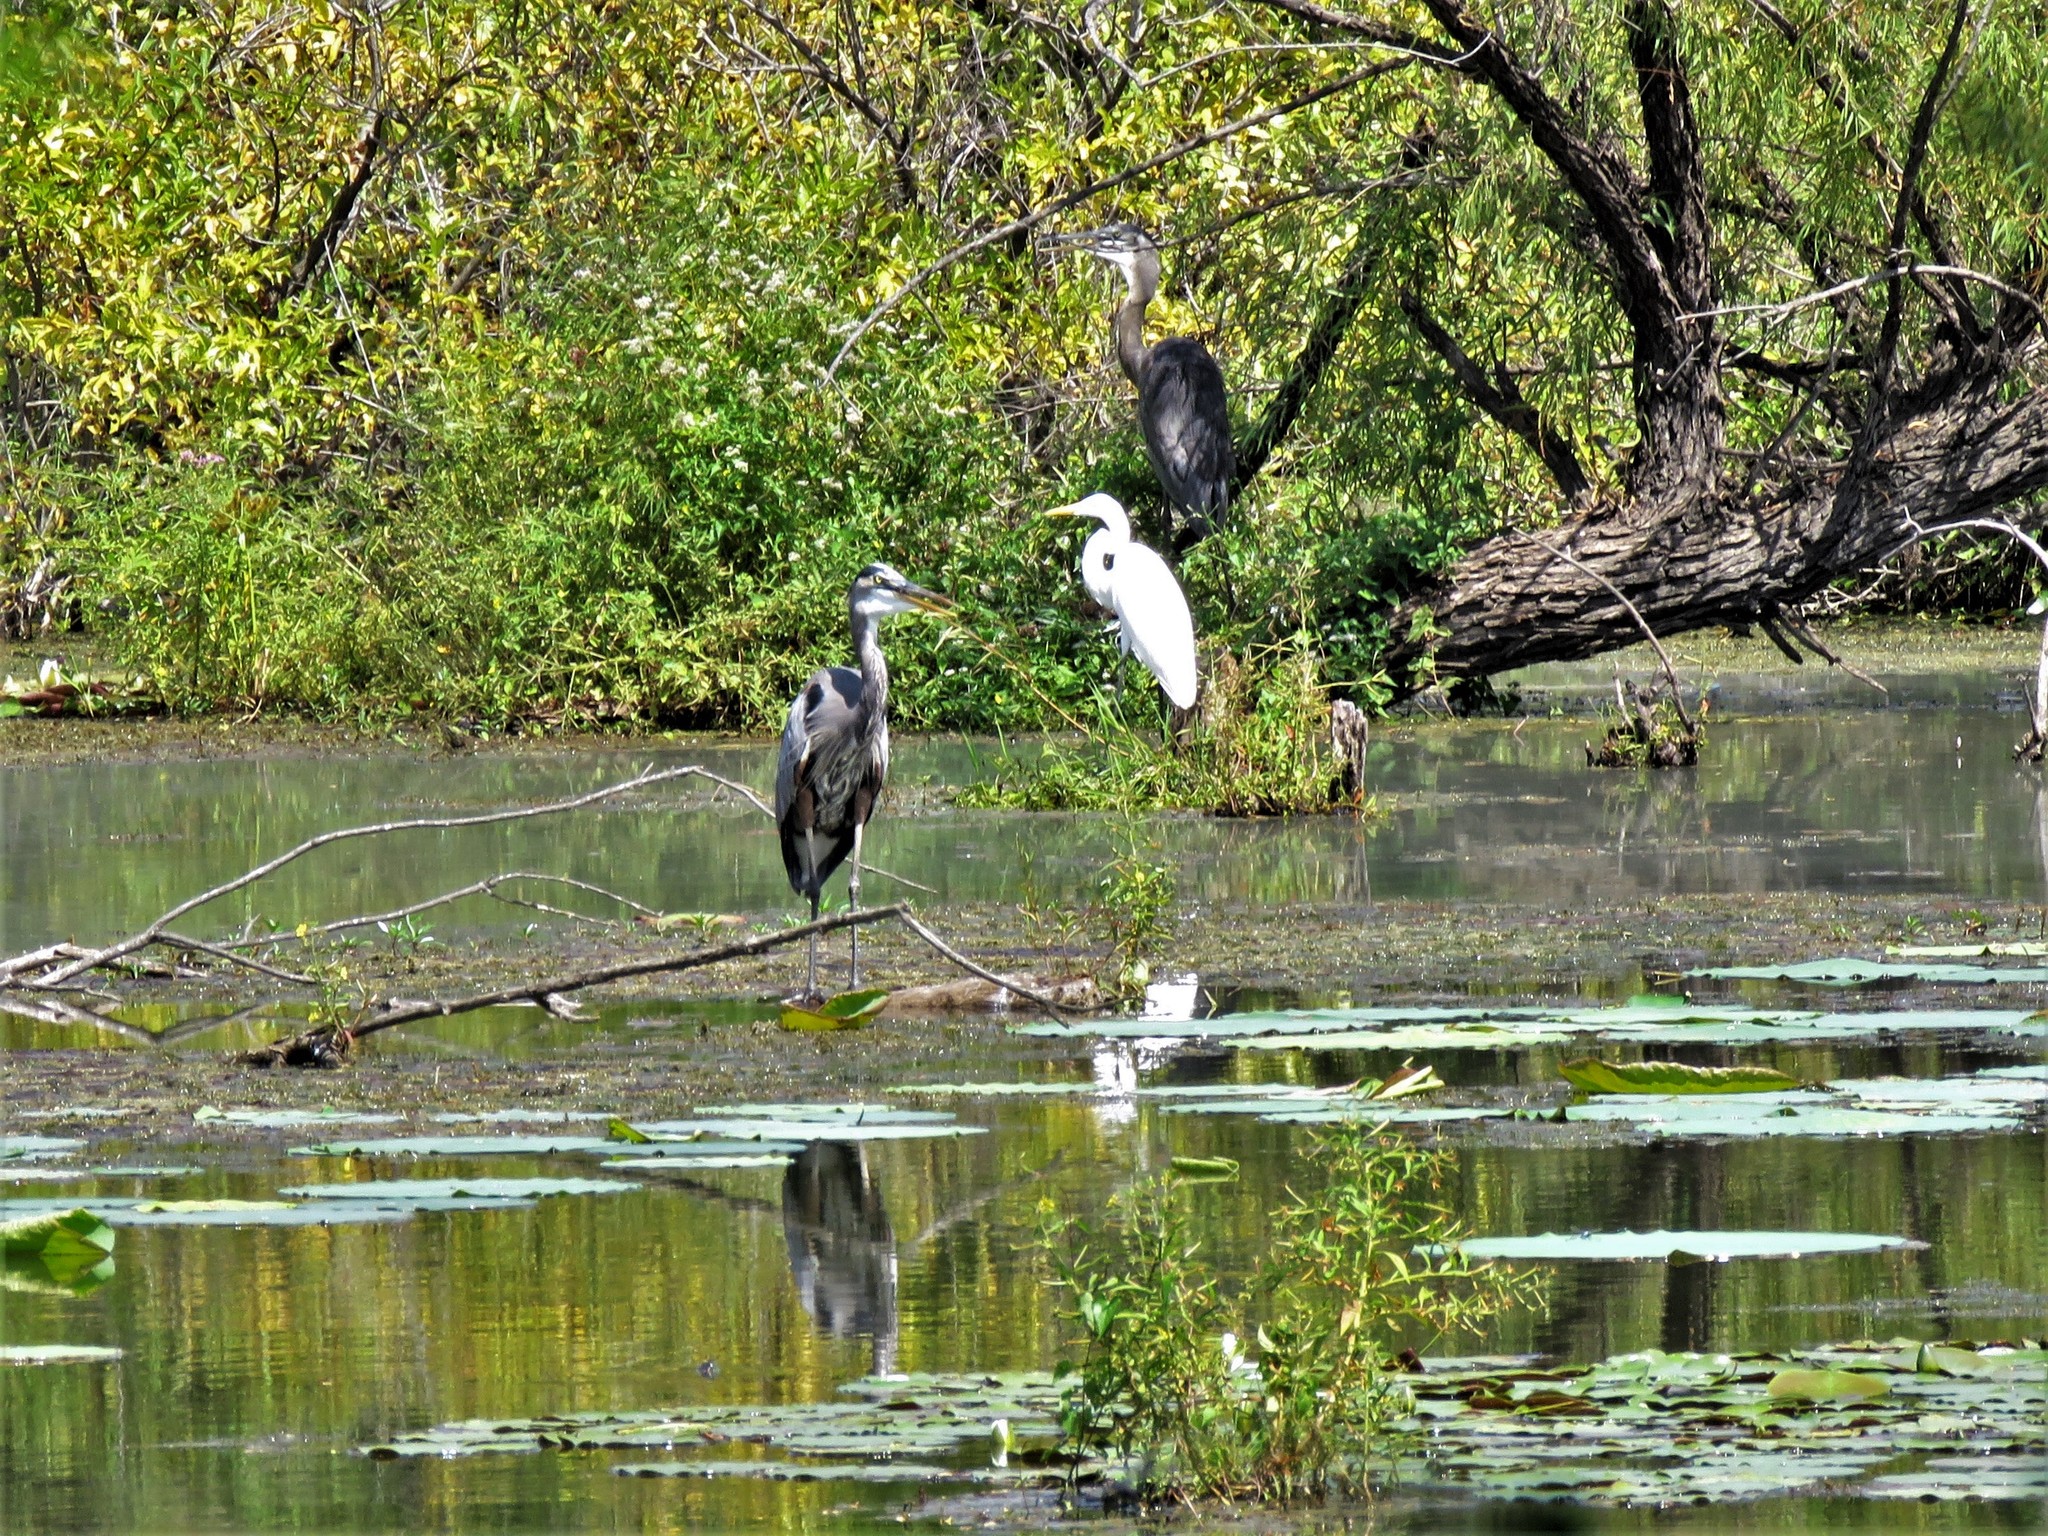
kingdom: Animalia
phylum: Chordata
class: Aves
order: Pelecaniformes
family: Ardeidae
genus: Ardea
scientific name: Ardea herodias
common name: Great blue heron
